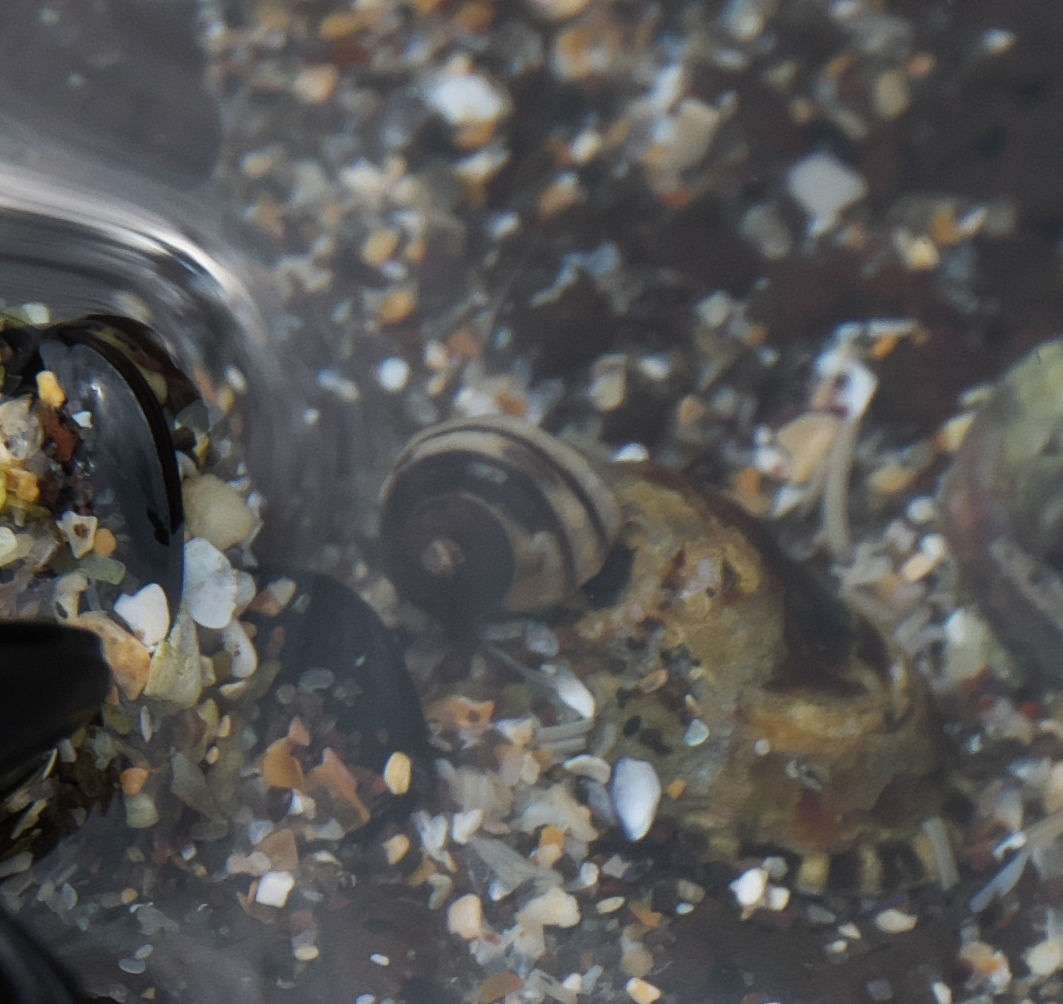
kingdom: Animalia
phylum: Mollusca
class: Gastropoda
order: Littorinimorpha
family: Littorinidae
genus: Risellopsis
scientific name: Risellopsis varia
